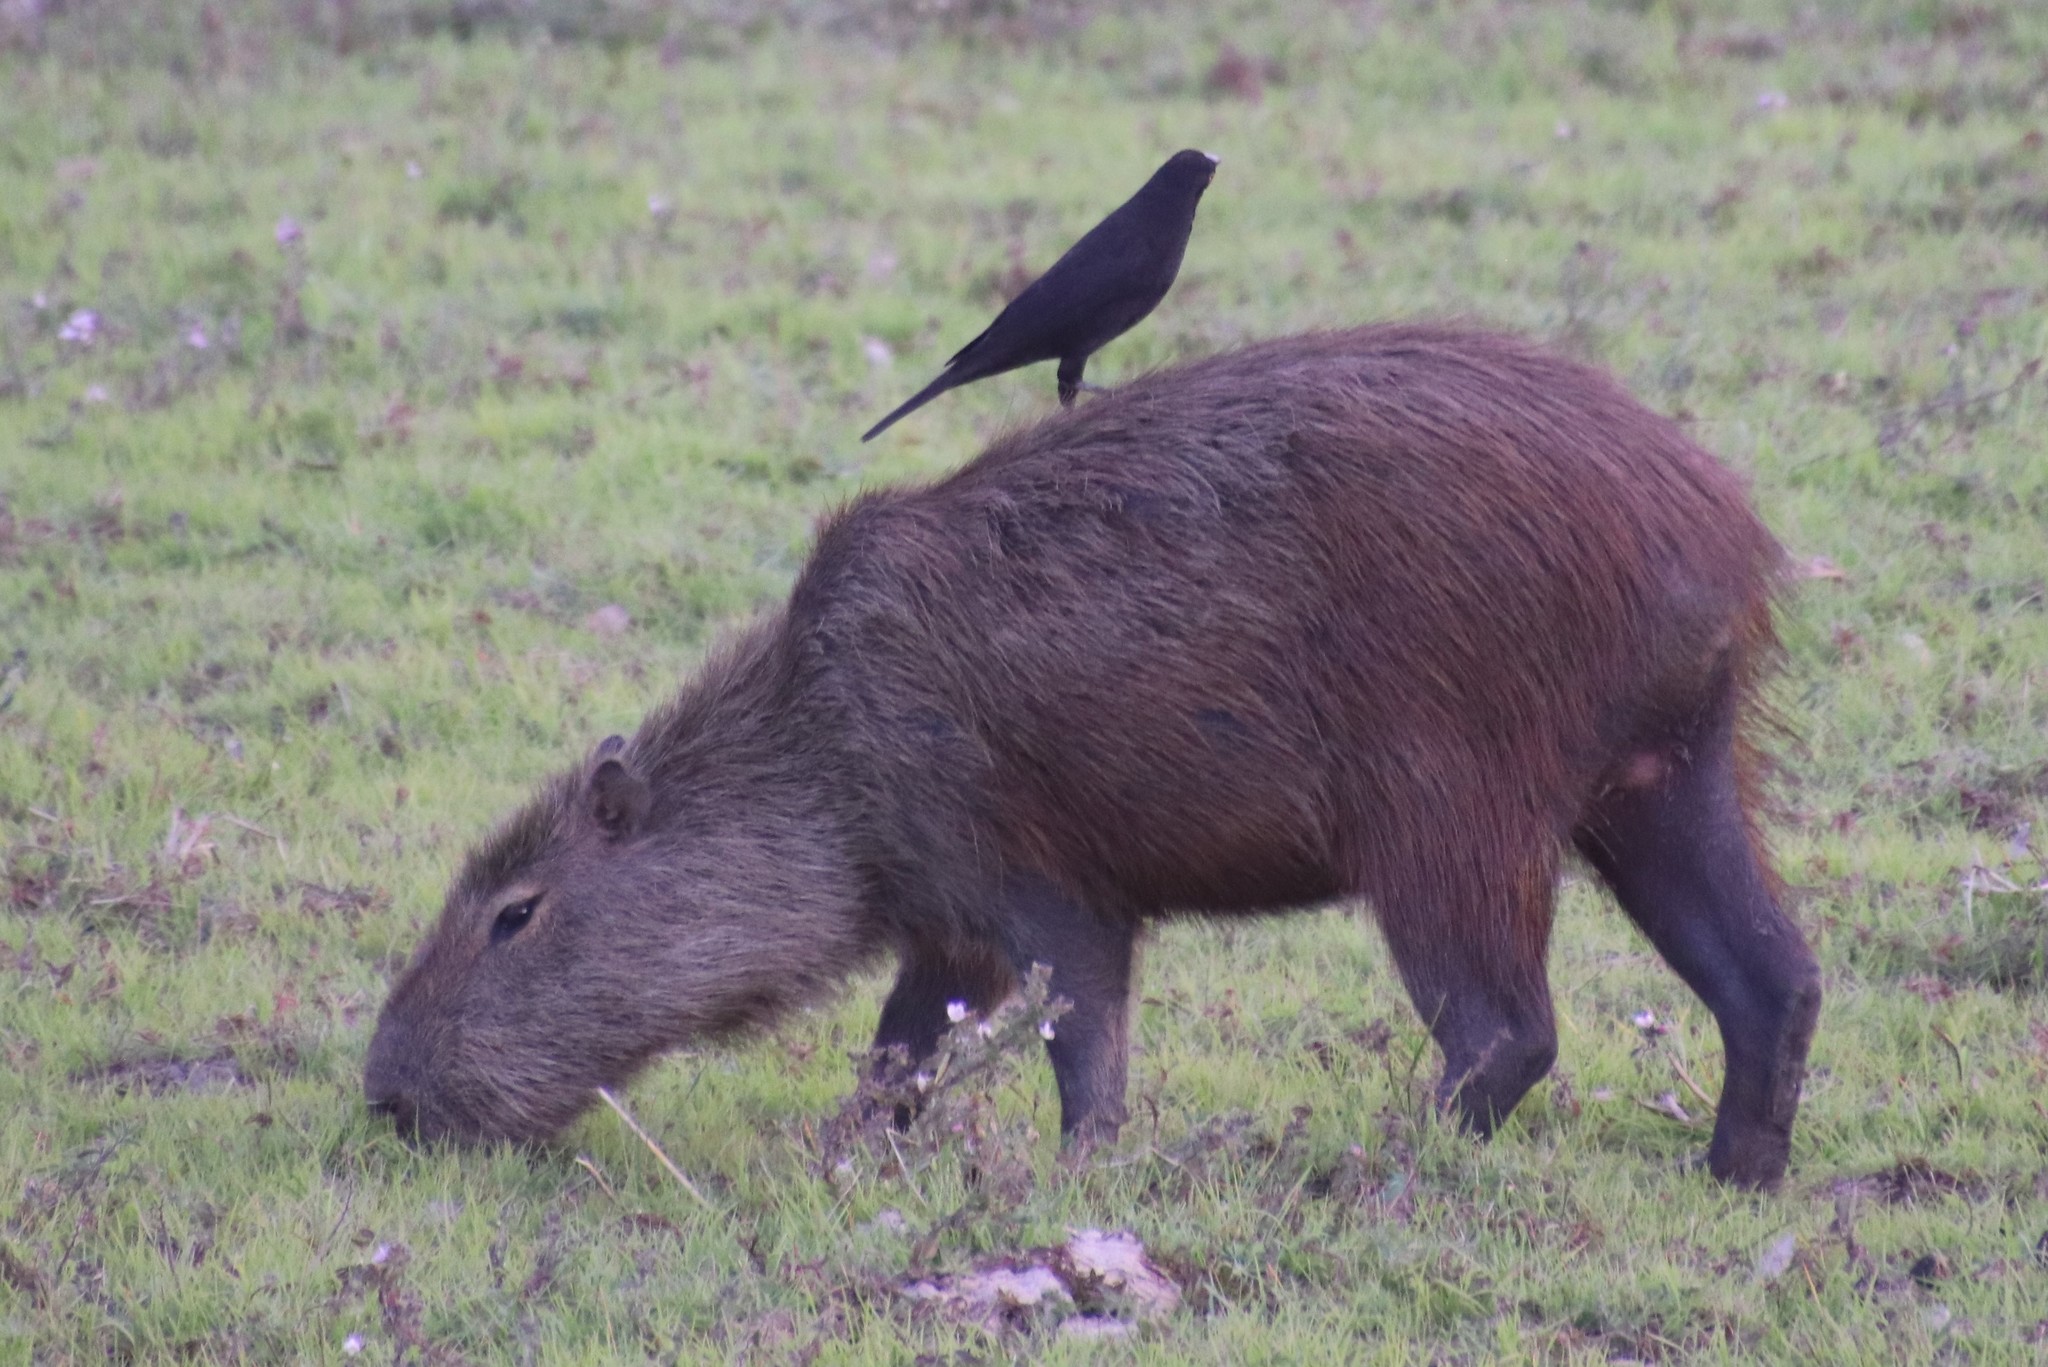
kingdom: Animalia
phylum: Chordata
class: Aves
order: Passeriformes
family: Icteridae
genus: Molothrus
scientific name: Molothrus oryzivorus
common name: Giant cowbird
